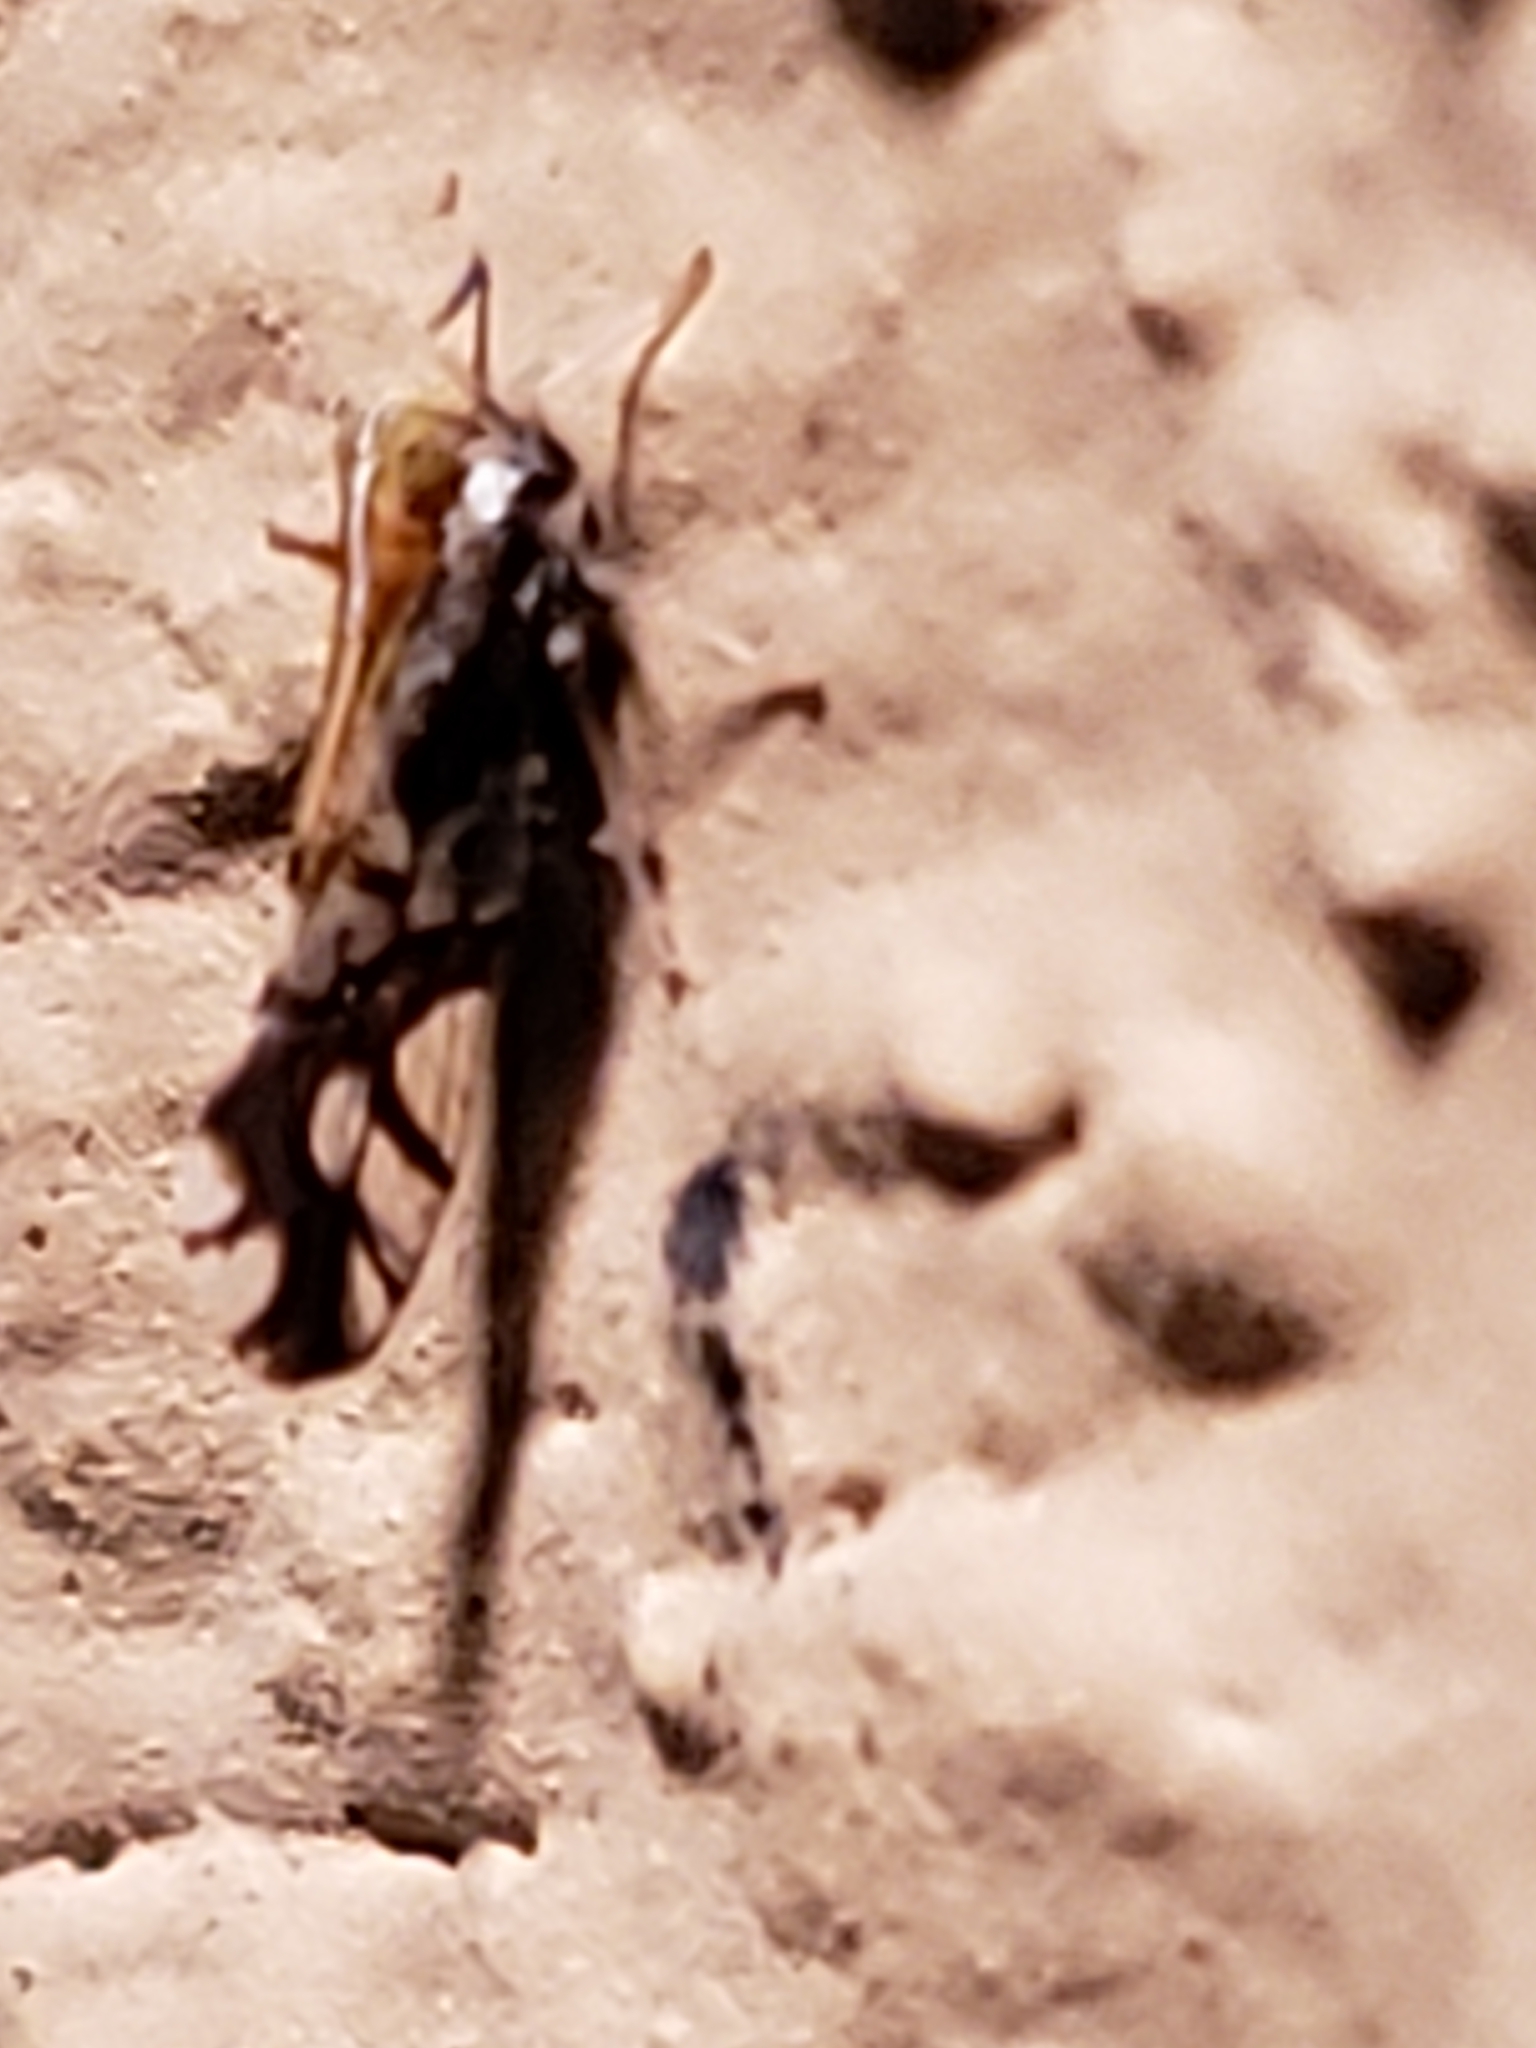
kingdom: Animalia
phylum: Arthropoda
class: Insecta
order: Hemiptera
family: Delphacidae
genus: Liburniella
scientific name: Liburniella ornata
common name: Ornate planthopper
